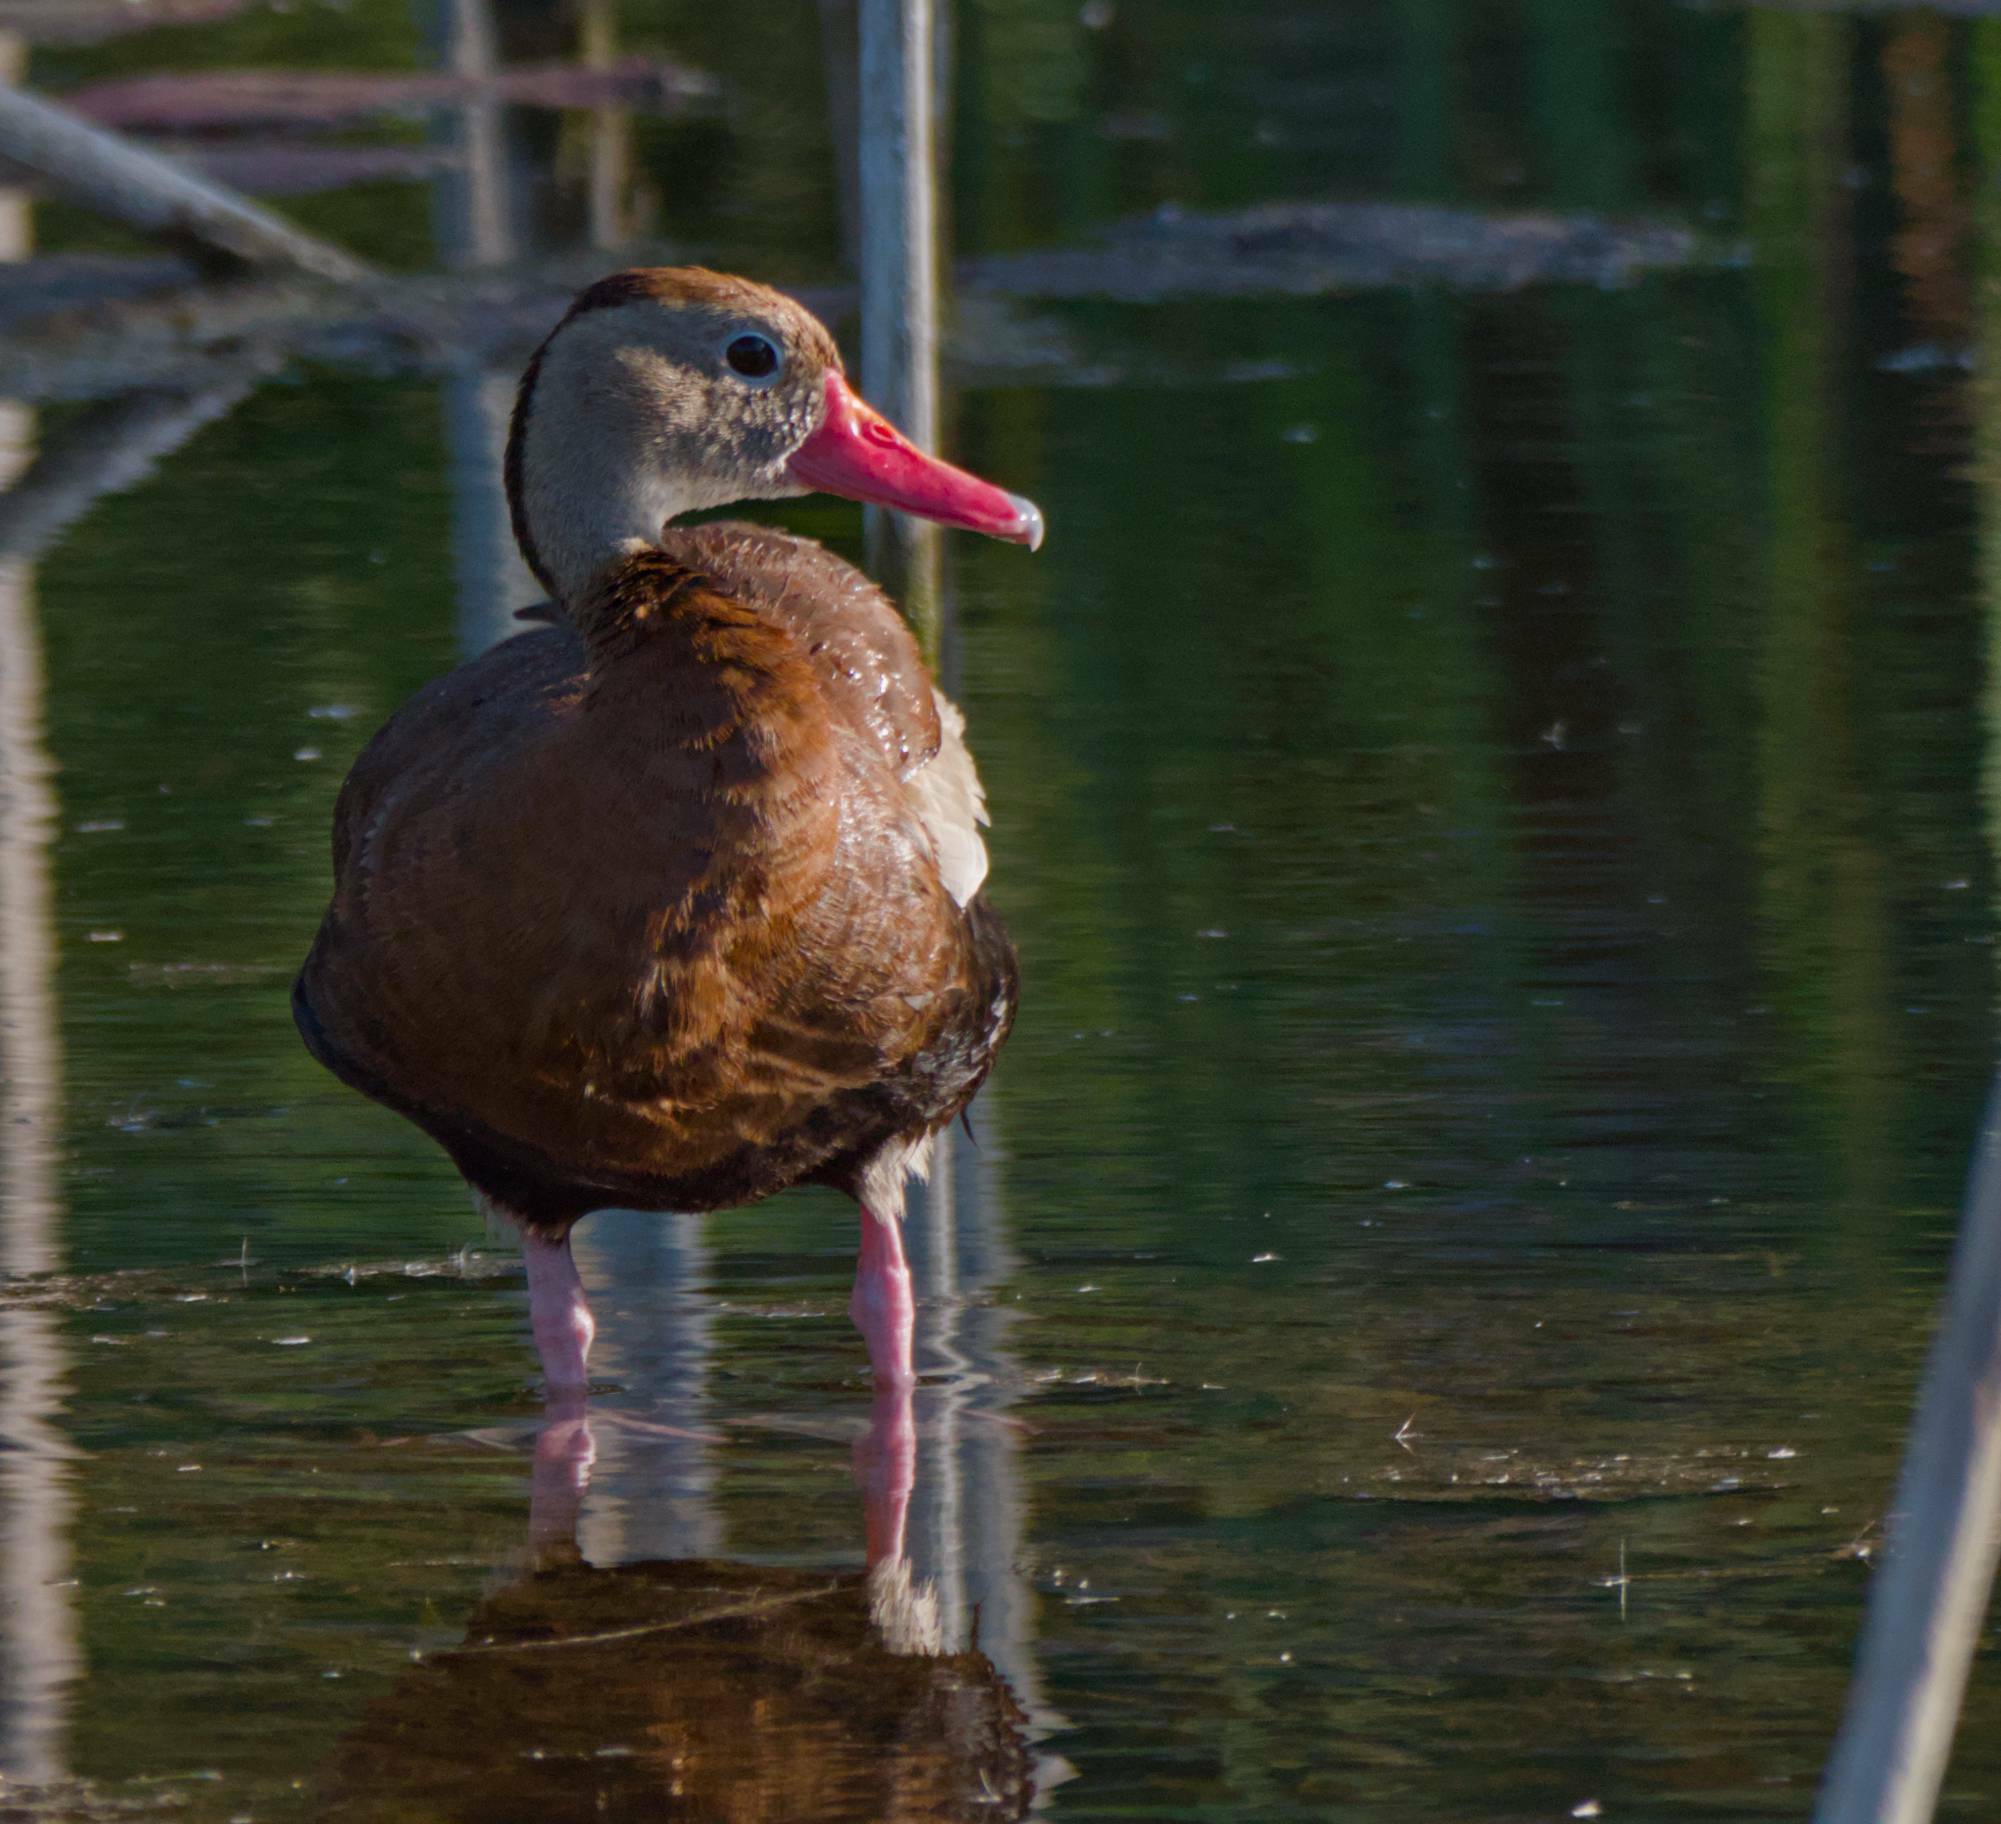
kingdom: Animalia
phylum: Chordata
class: Aves
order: Anseriformes
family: Anatidae
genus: Dendrocygna
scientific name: Dendrocygna autumnalis
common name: Black-bellied whistling duck
